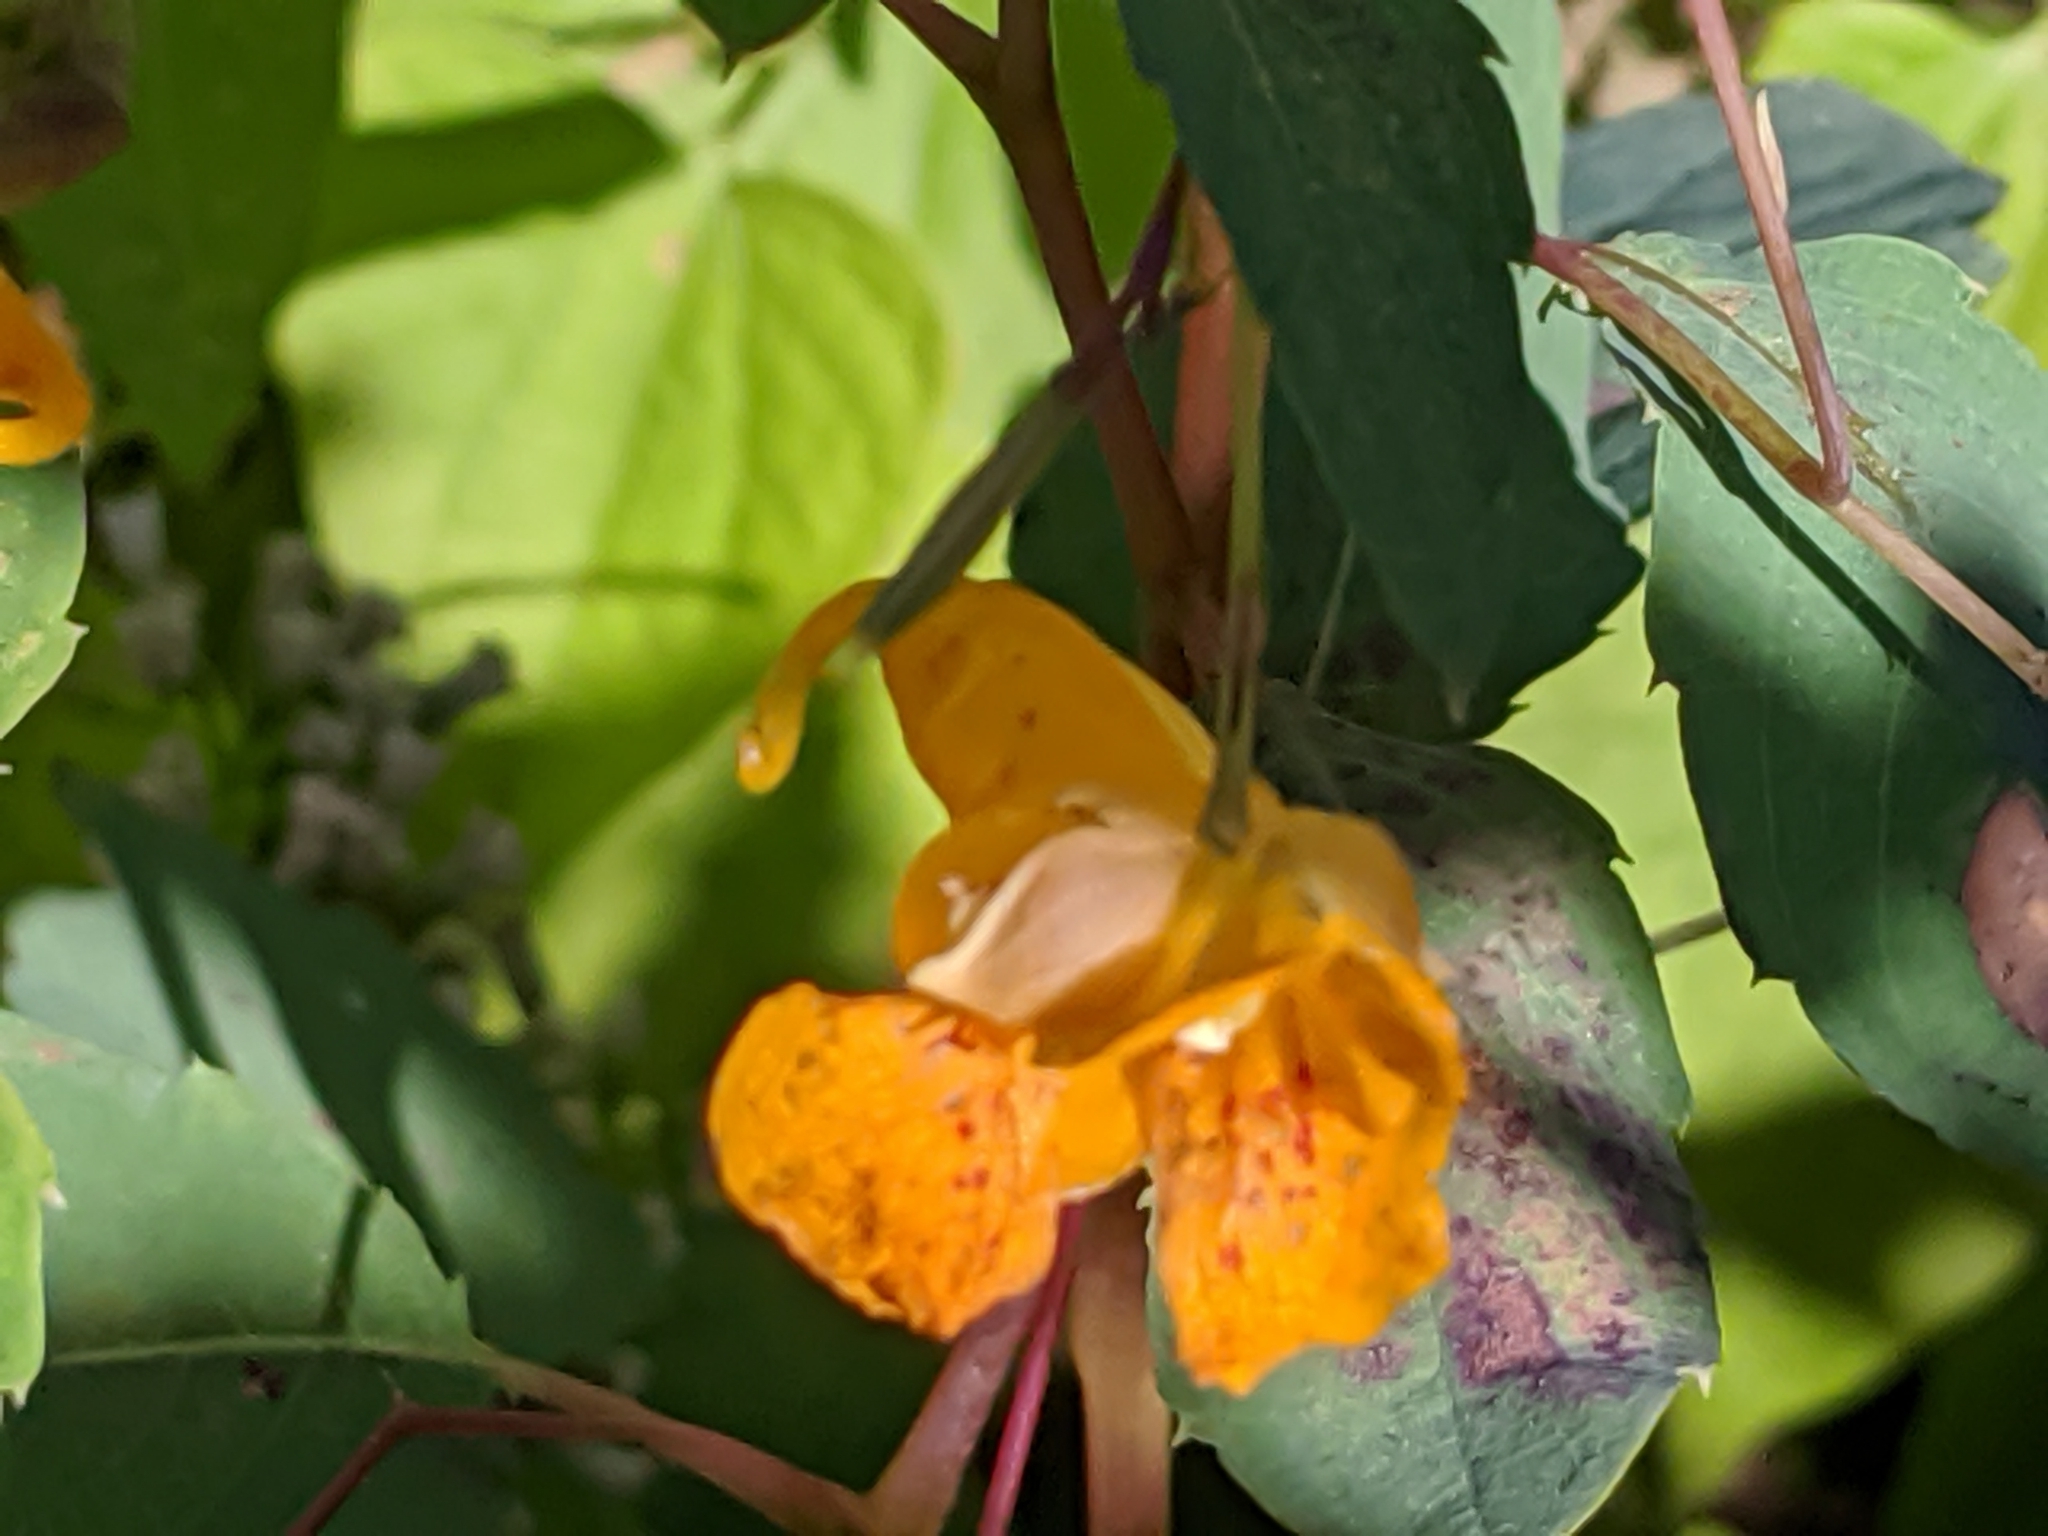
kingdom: Plantae
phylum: Tracheophyta
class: Magnoliopsida
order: Ericales
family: Balsaminaceae
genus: Impatiens
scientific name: Impatiens capensis
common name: Orange balsam
